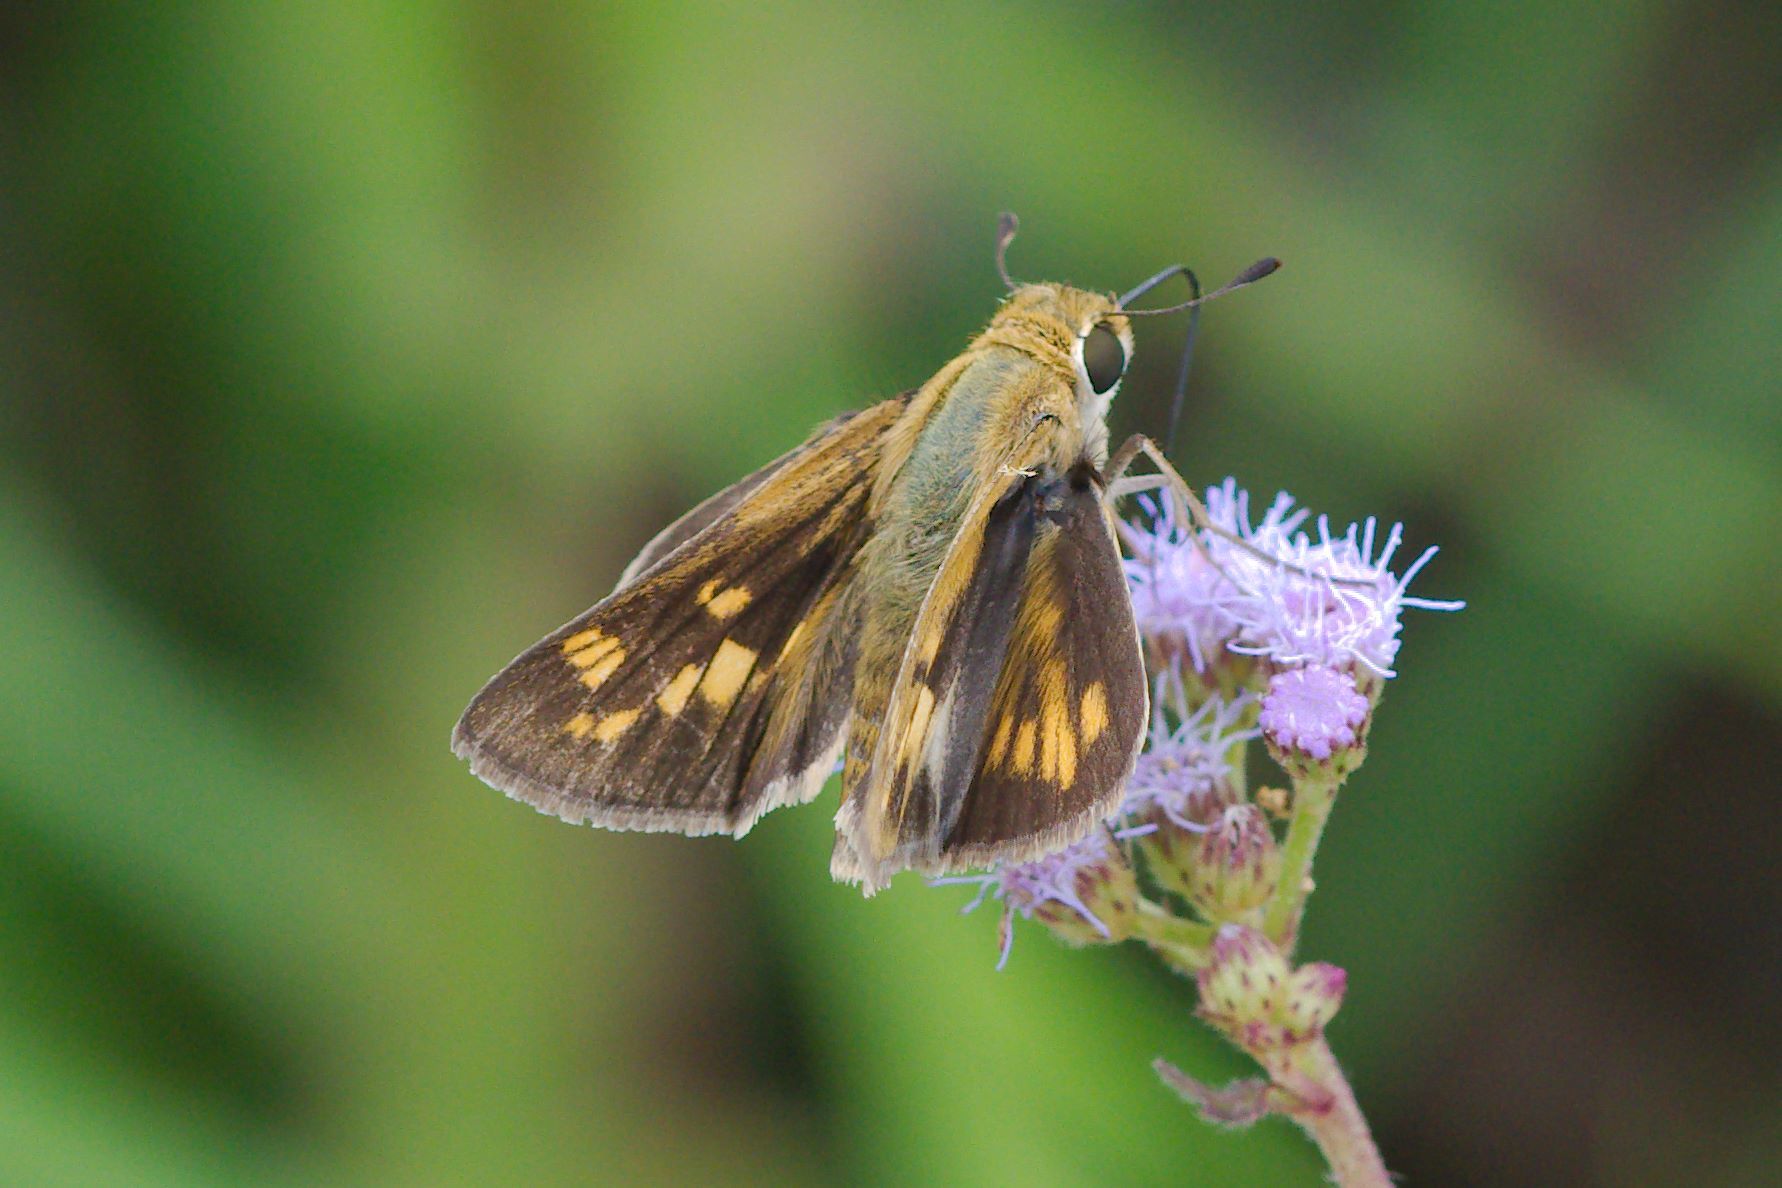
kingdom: Animalia
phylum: Arthropoda
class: Insecta
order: Lepidoptera
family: Hesperiidae
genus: Hylephila
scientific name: Hylephila phyleus
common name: Fiery skipper
